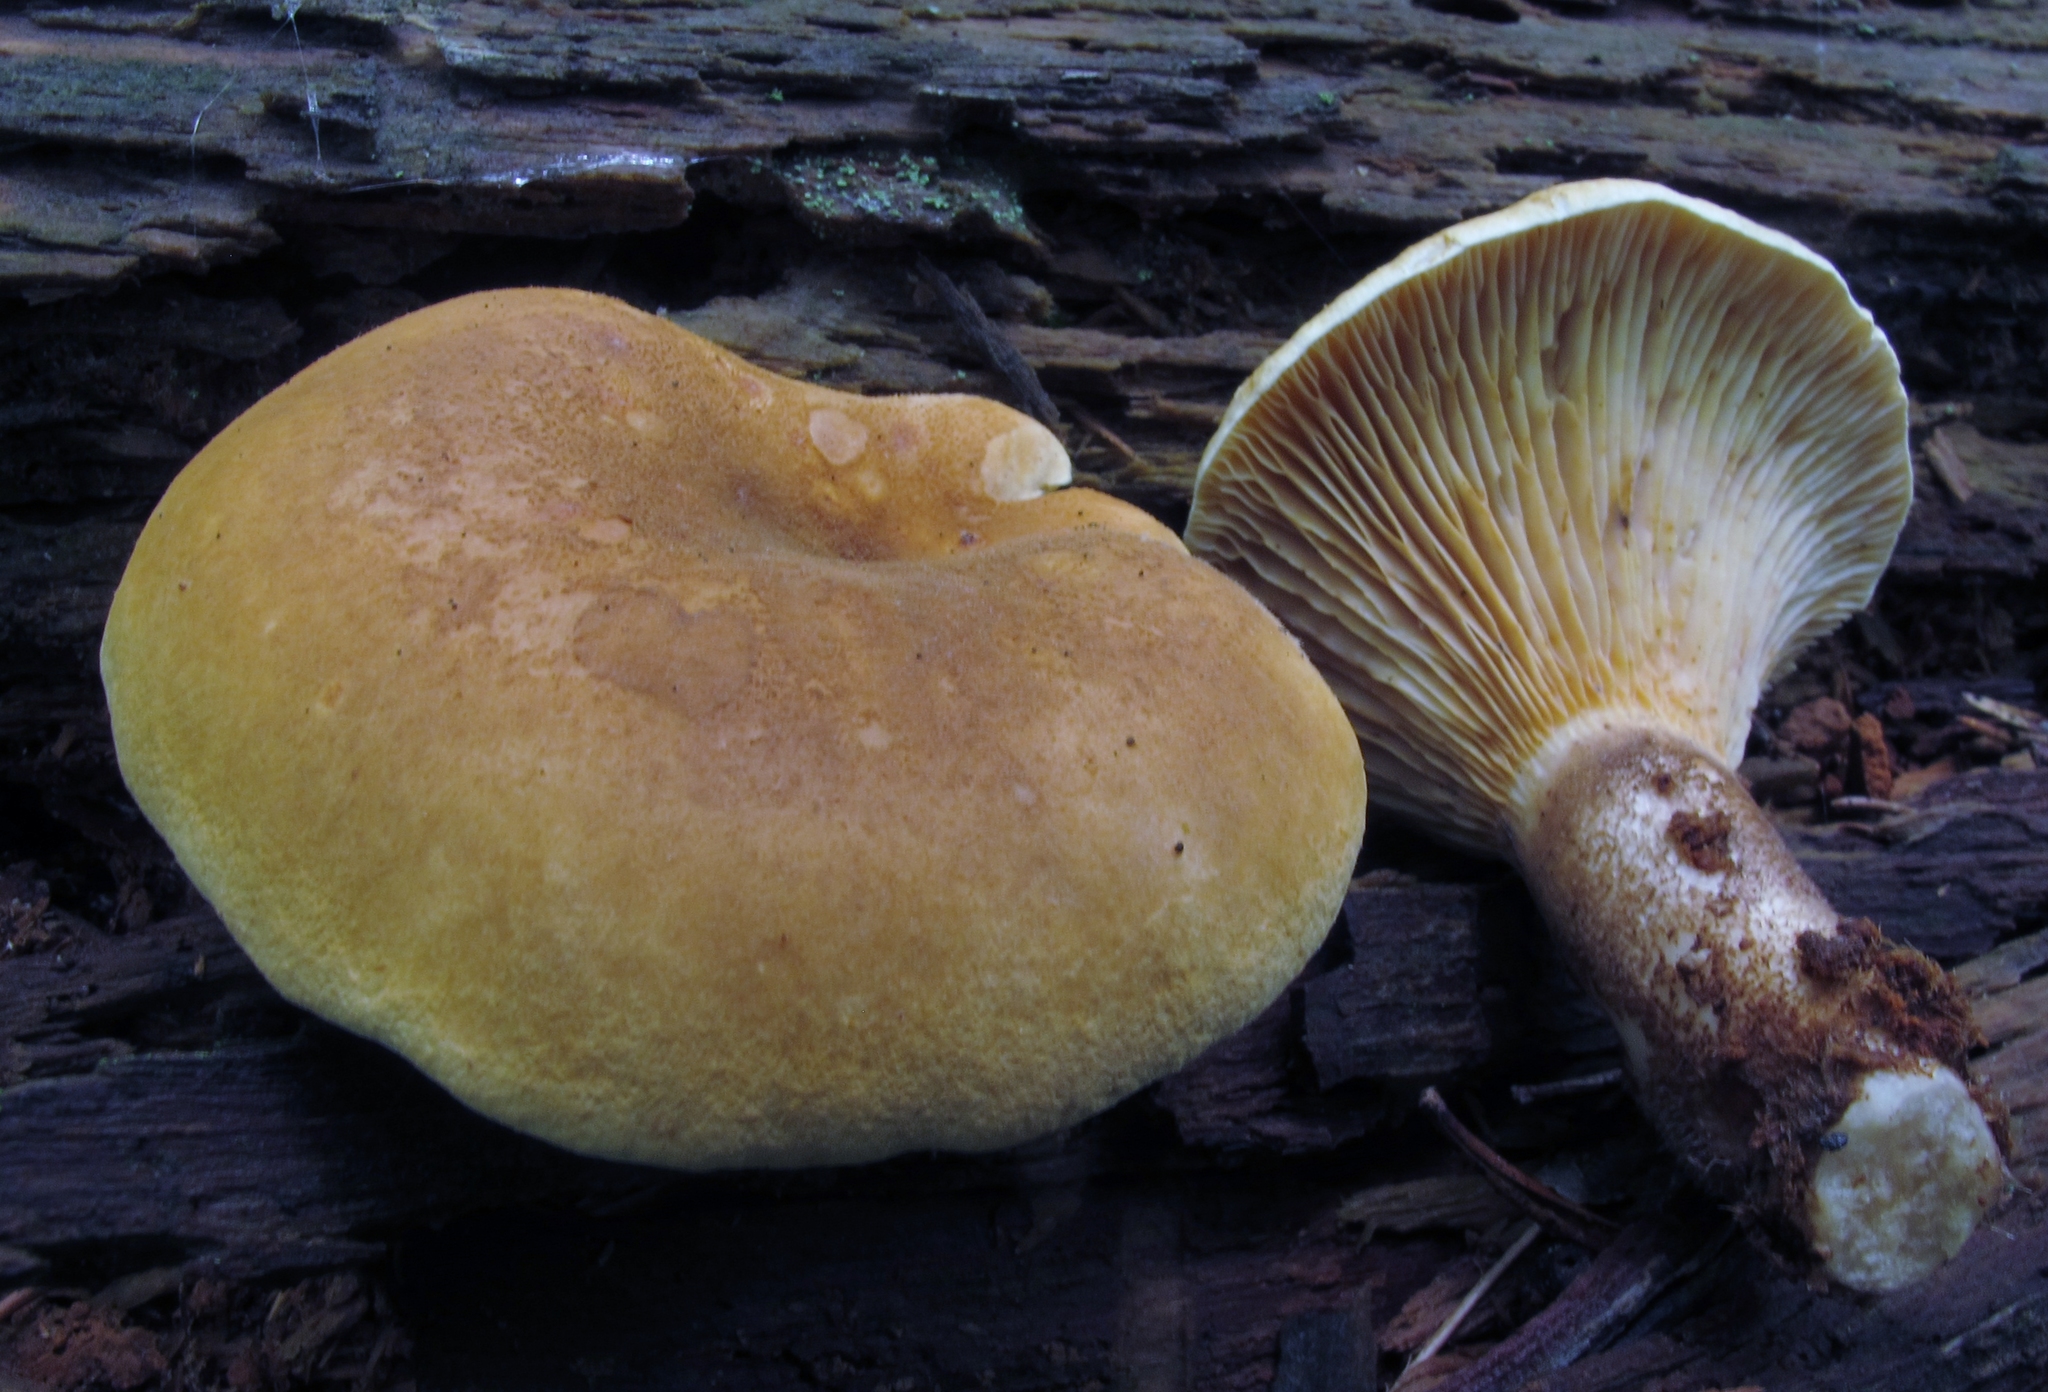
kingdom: Fungi
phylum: Basidiomycota
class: Agaricomycetes
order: Boletales
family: Tapinellaceae
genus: Tapinella
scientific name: Tapinella atrotomentosa
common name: Velvet rollrim
